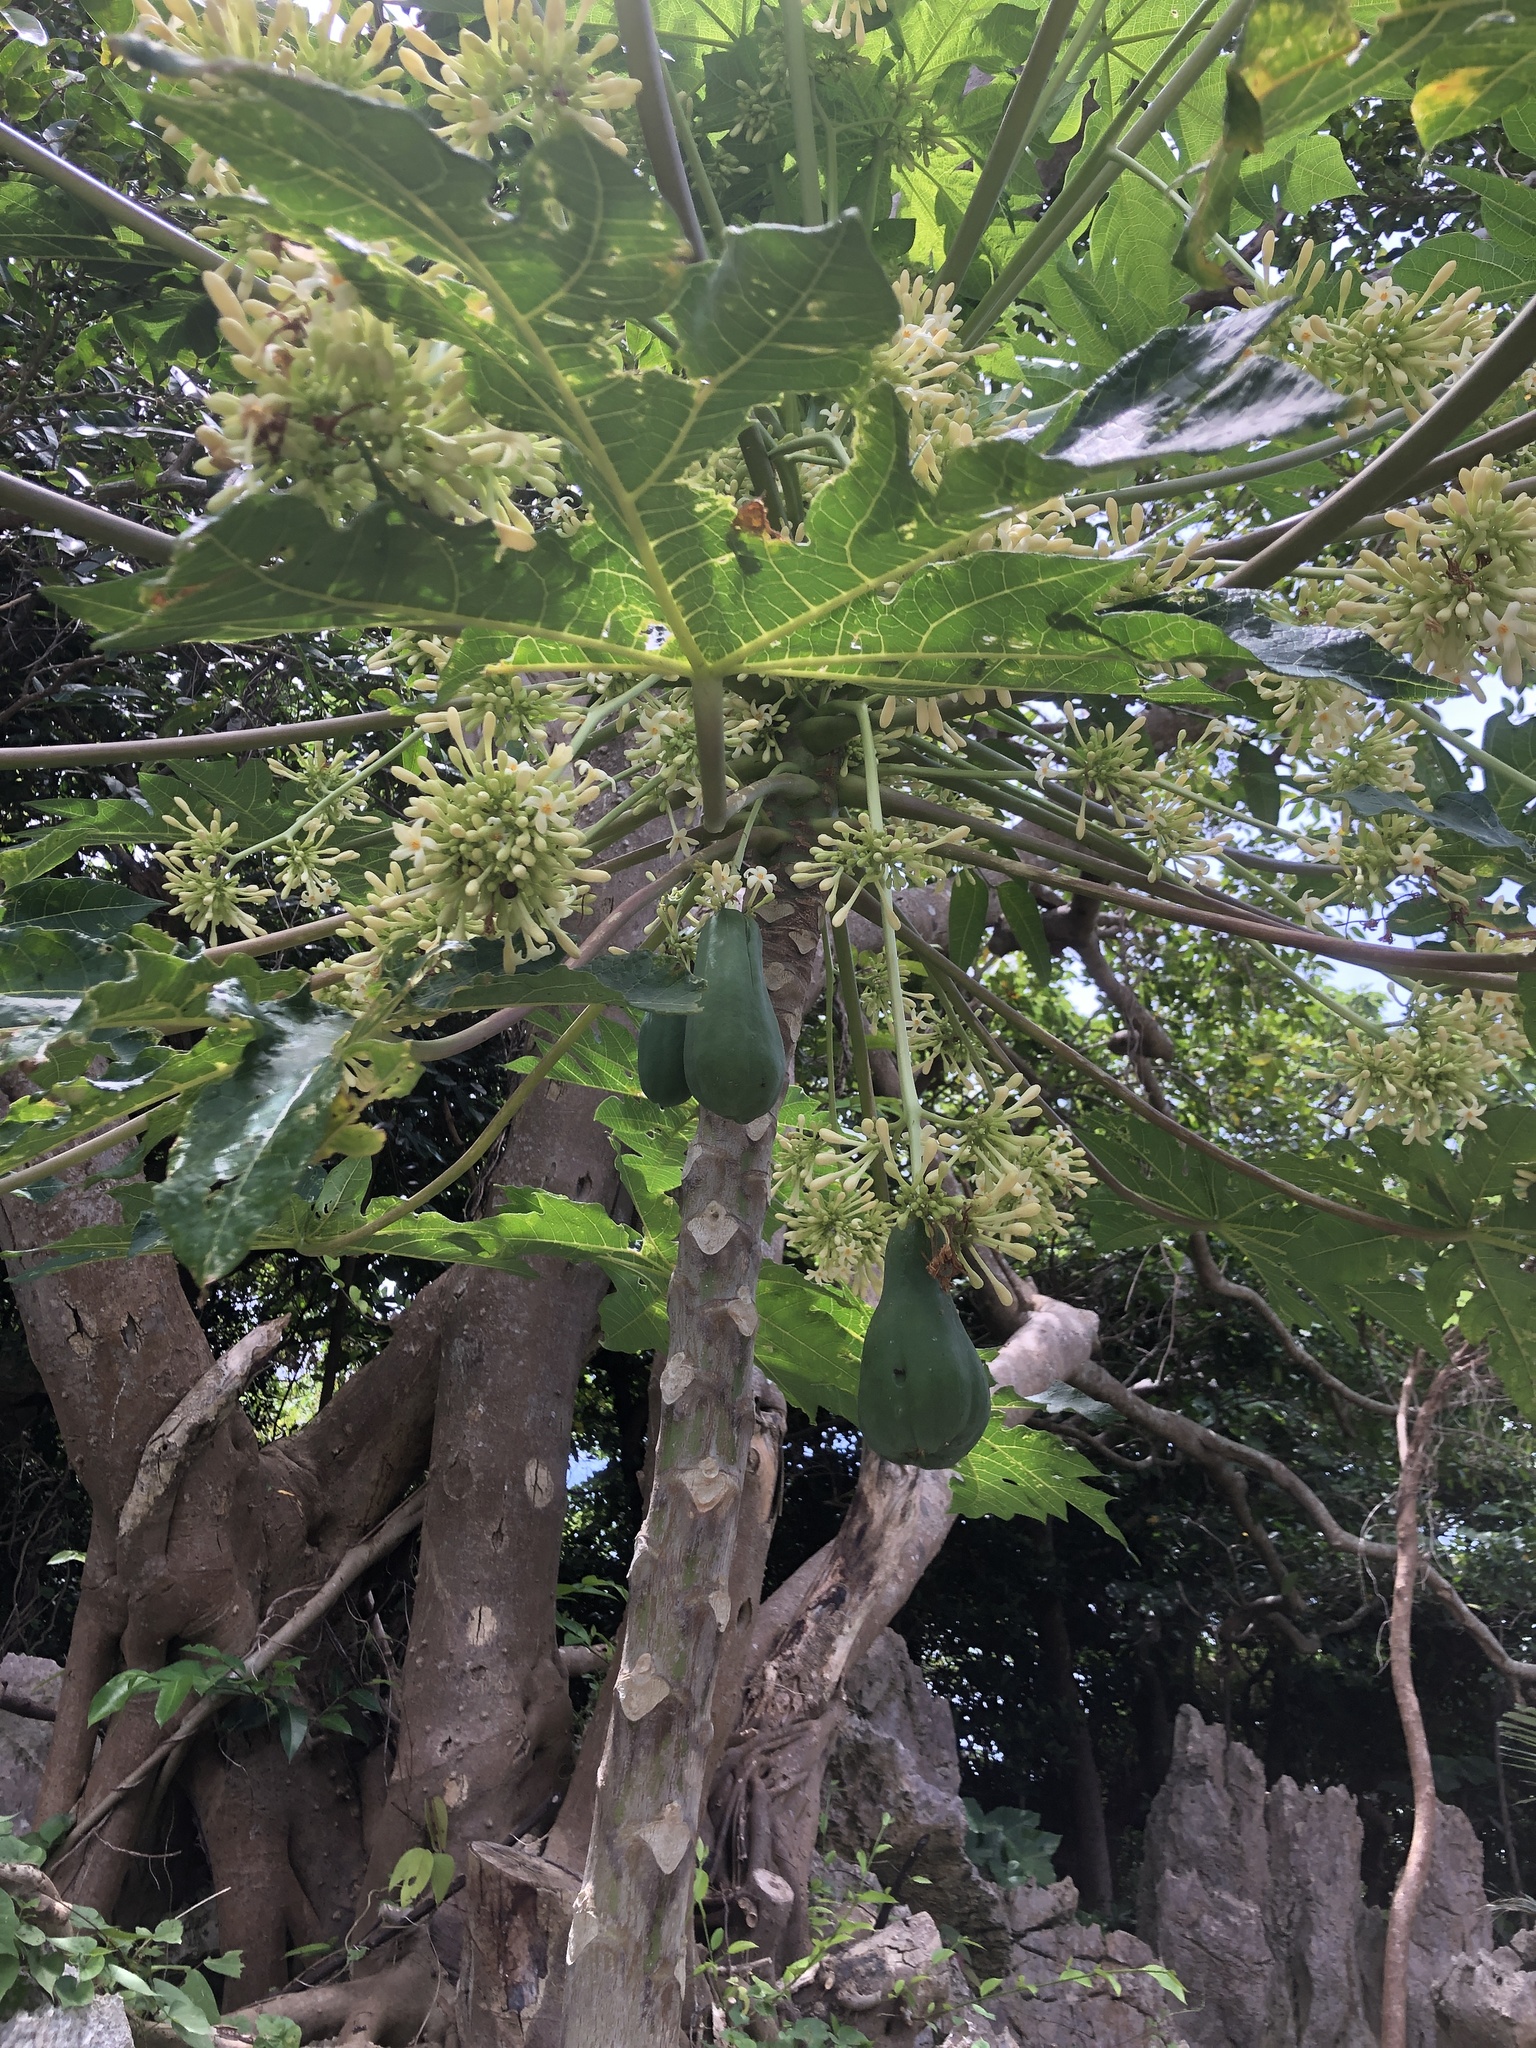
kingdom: Plantae
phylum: Tracheophyta
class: Magnoliopsida
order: Brassicales
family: Caricaceae
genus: Carica
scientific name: Carica papaya
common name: Papaya
